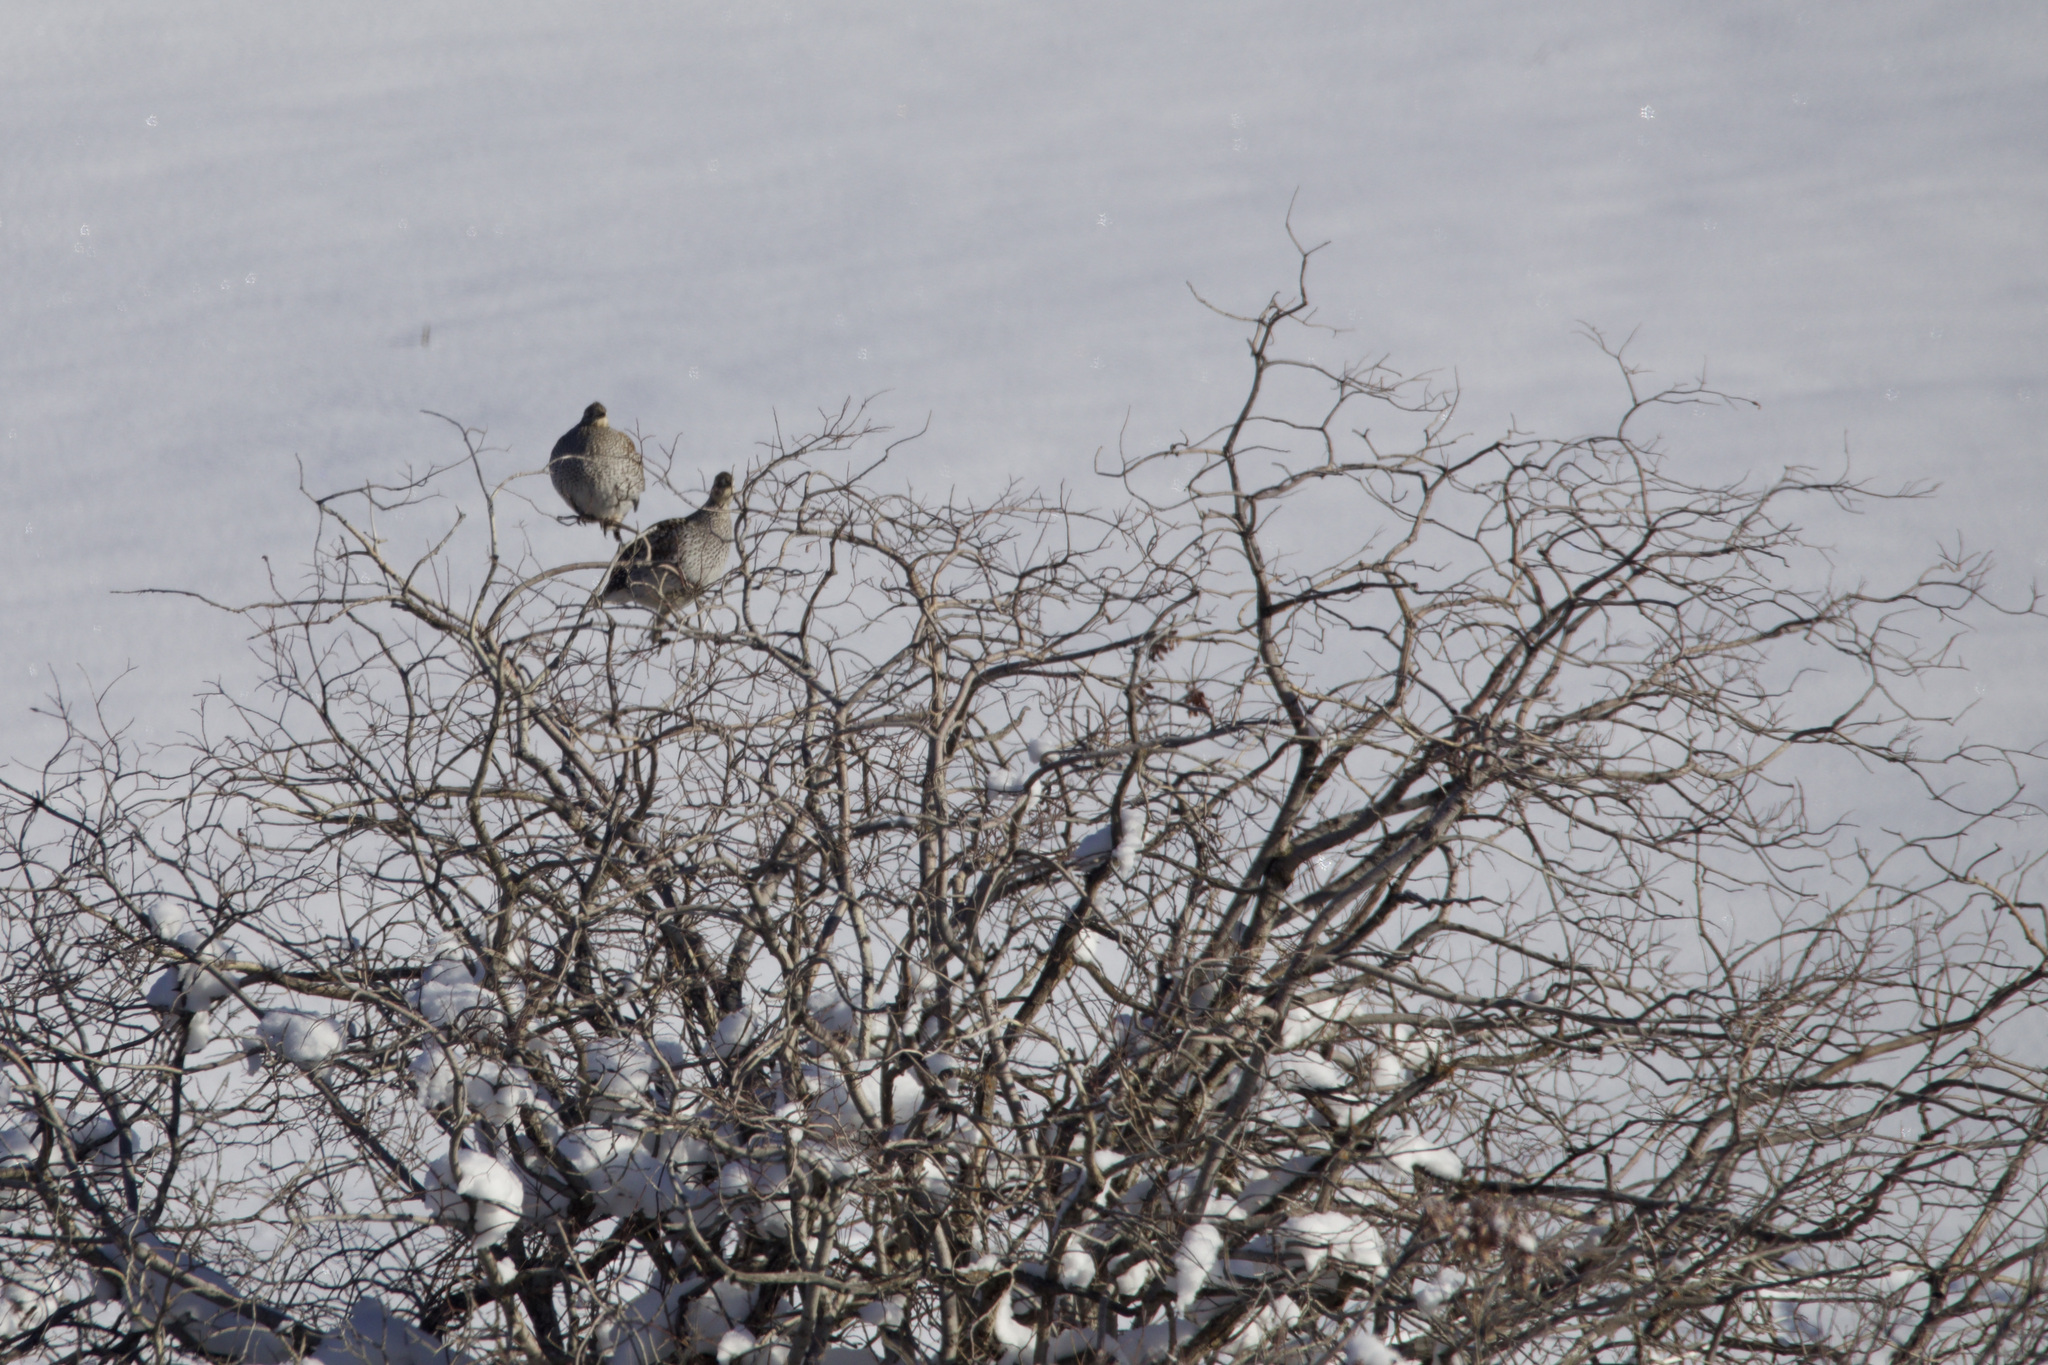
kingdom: Animalia
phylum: Chordata
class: Aves
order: Galliformes
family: Phasianidae
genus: Tympanuchus
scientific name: Tympanuchus phasianellus
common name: Sharp-tailed grouse
